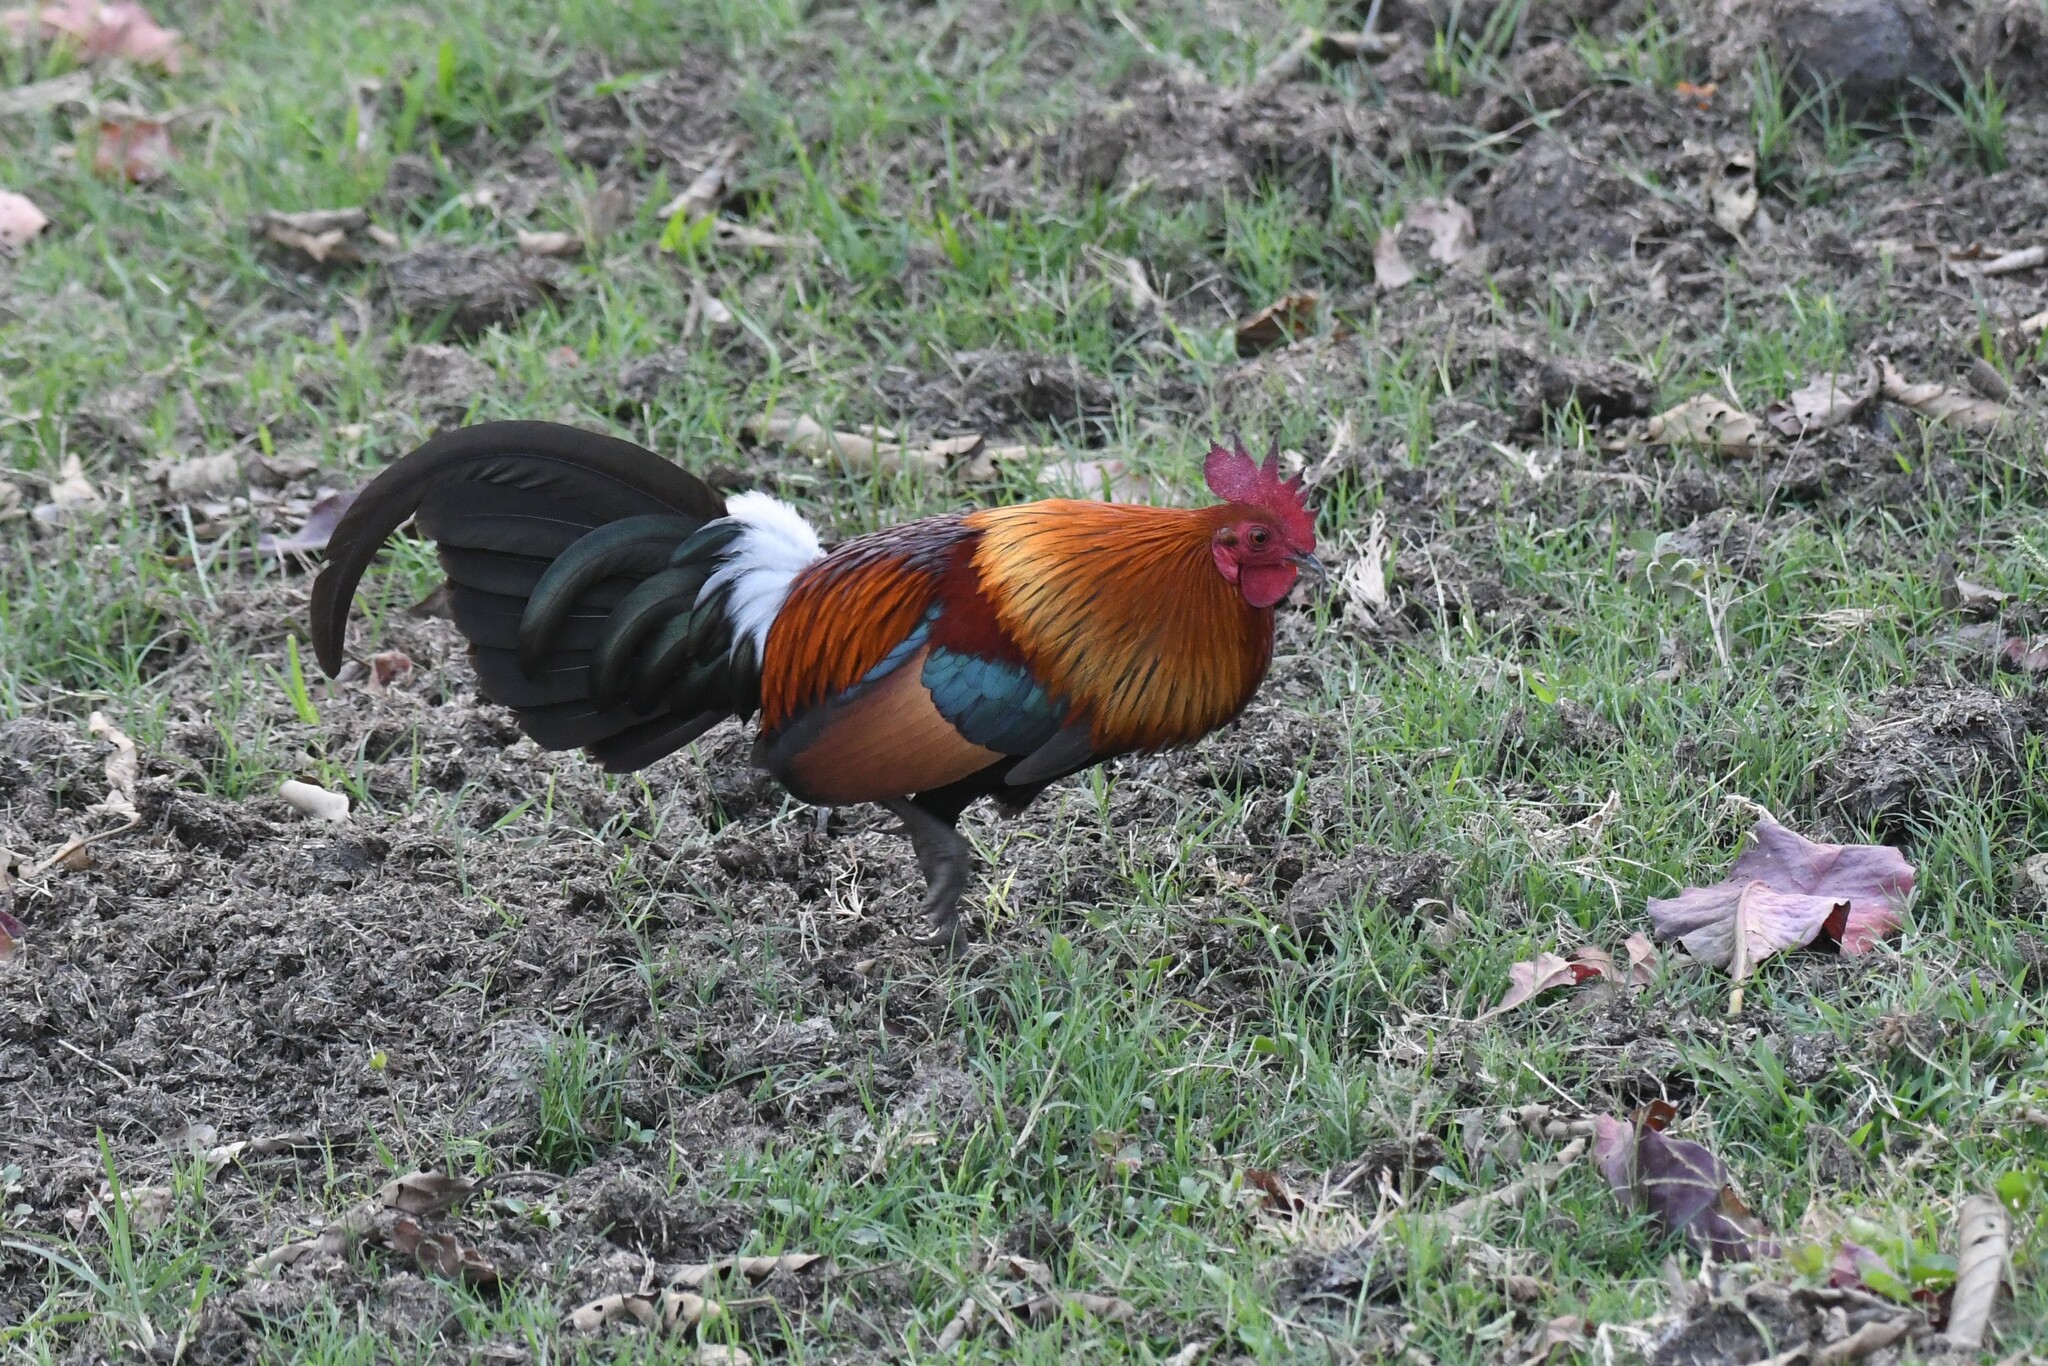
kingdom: Animalia
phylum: Chordata
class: Aves
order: Galliformes
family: Phasianidae
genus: Gallus
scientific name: Gallus gallus
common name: Red junglefowl
